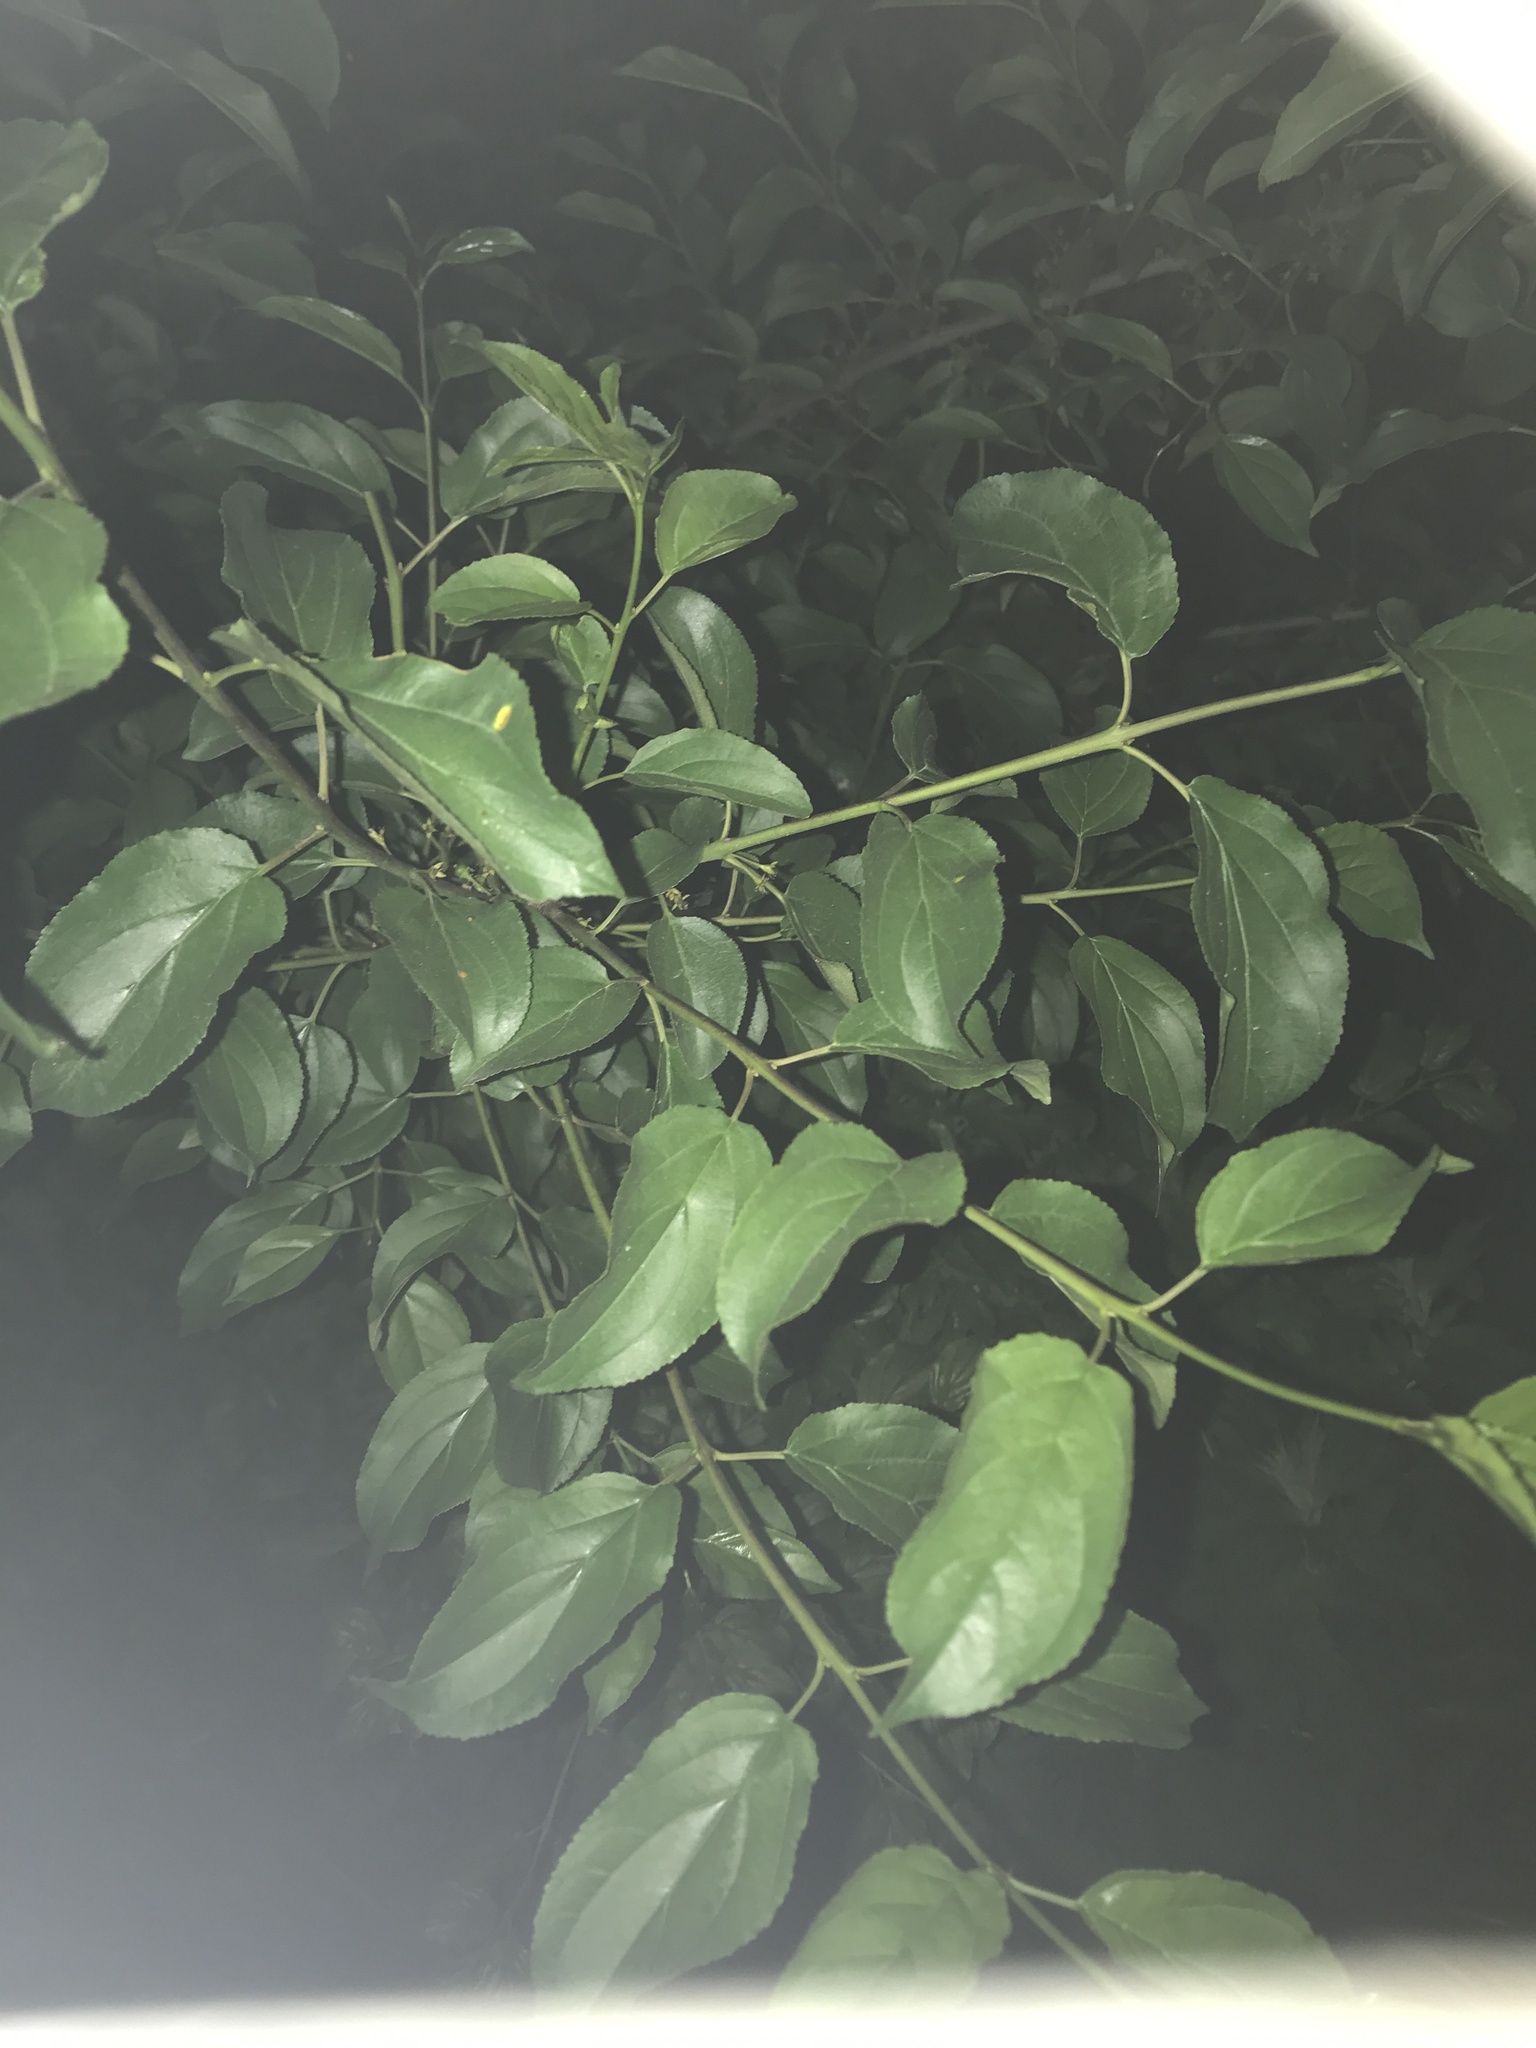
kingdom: Plantae
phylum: Tracheophyta
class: Magnoliopsida
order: Rosales
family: Rhamnaceae
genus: Rhamnus
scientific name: Rhamnus cathartica
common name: Common buckthorn
